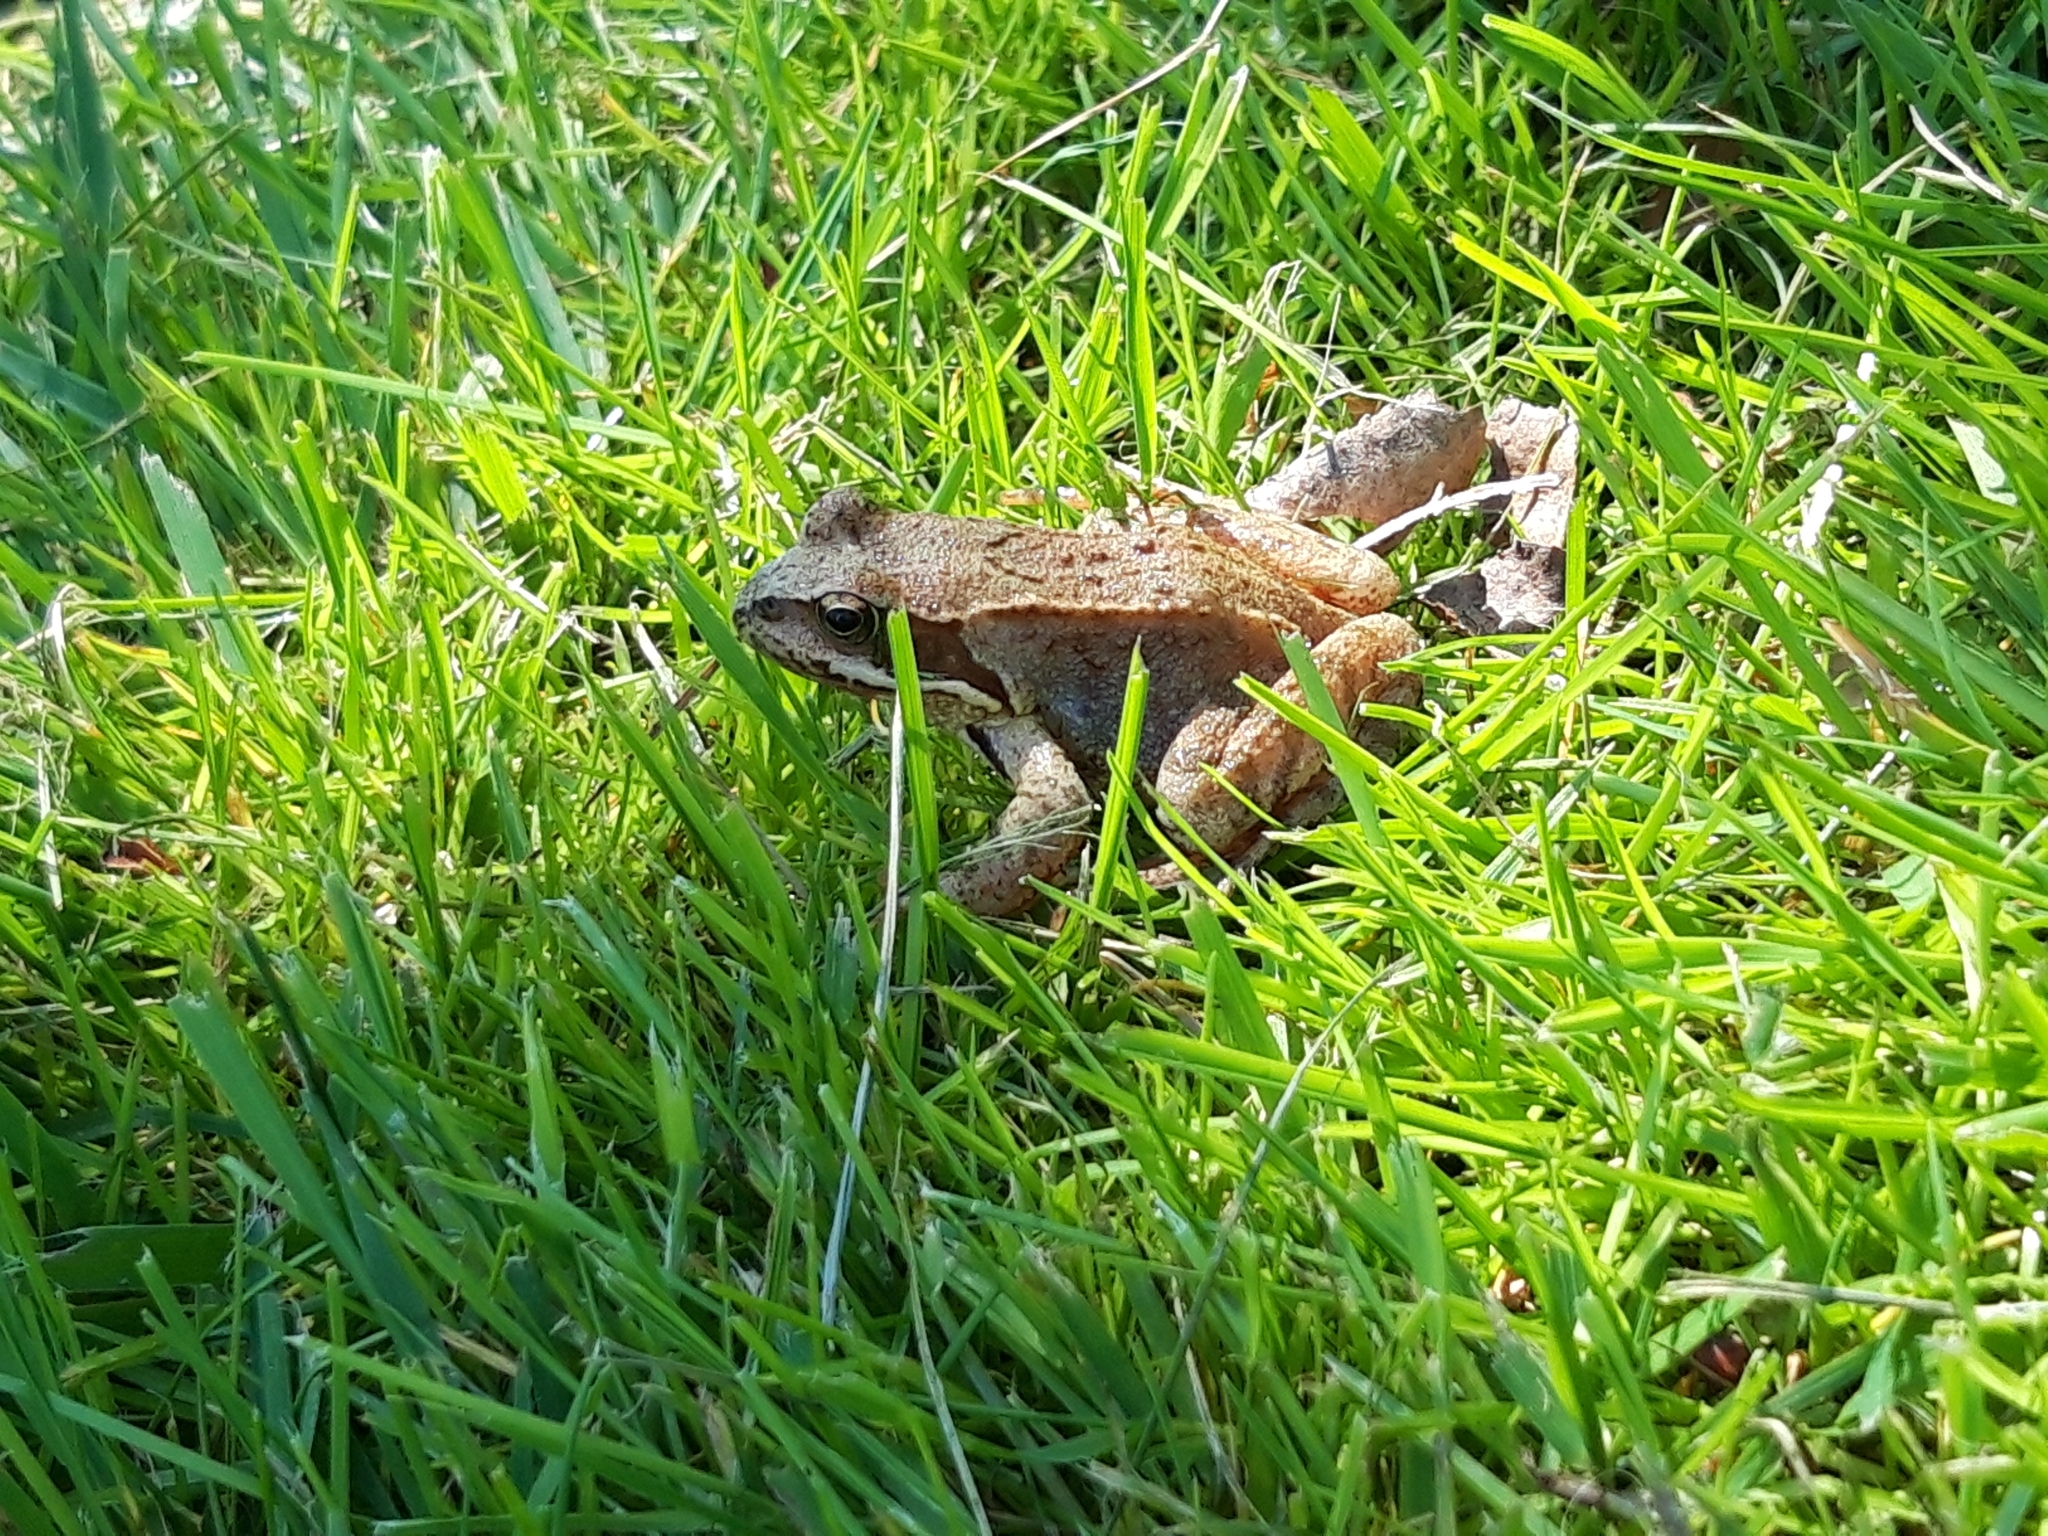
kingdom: Animalia
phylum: Chordata
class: Amphibia
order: Anura
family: Ranidae
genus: Rana
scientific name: Rana temporaria
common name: Common frog
